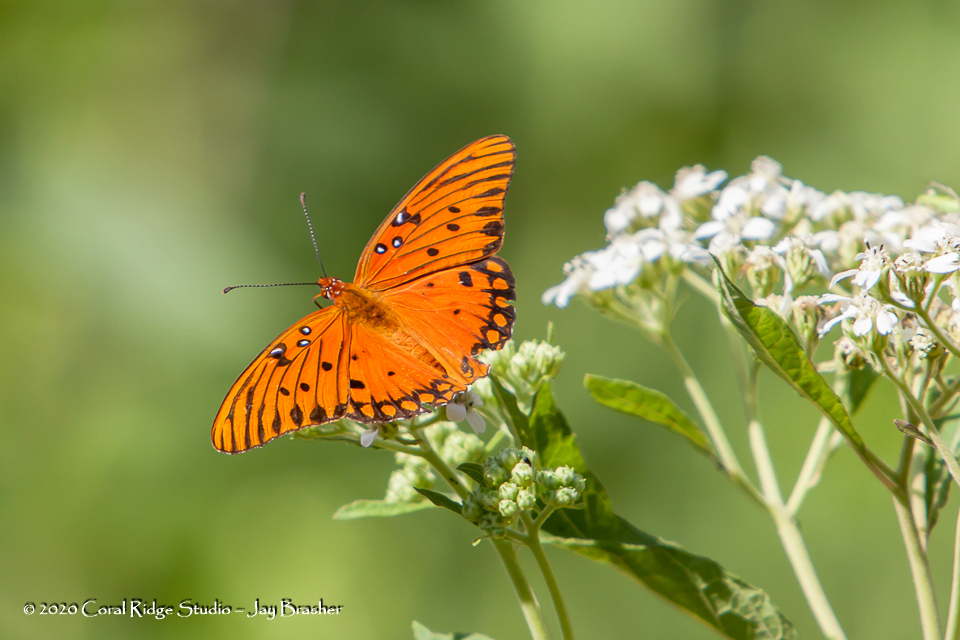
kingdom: Plantae
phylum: Tracheophyta
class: Magnoliopsida
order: Asterales
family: Asteraceae
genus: Verbesina
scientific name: Verbesina virginica
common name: Frostweed
